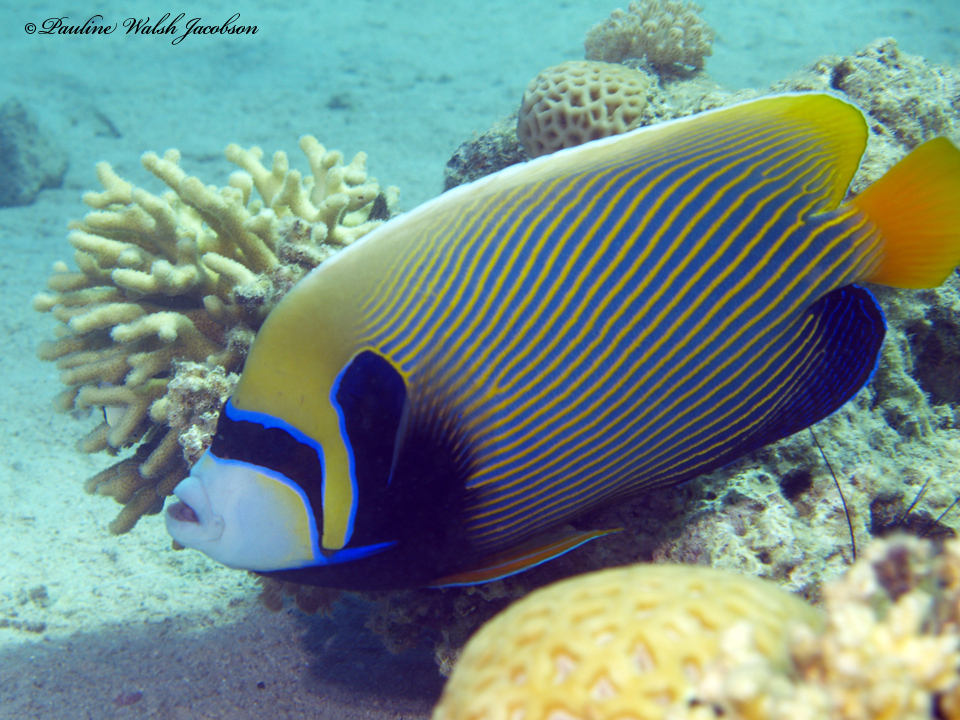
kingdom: Animalia
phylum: Chordata
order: Perciformes
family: Pomacanthidae
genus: Pomacanthus
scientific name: Pomacanthus imperator
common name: Emperor angelfish
